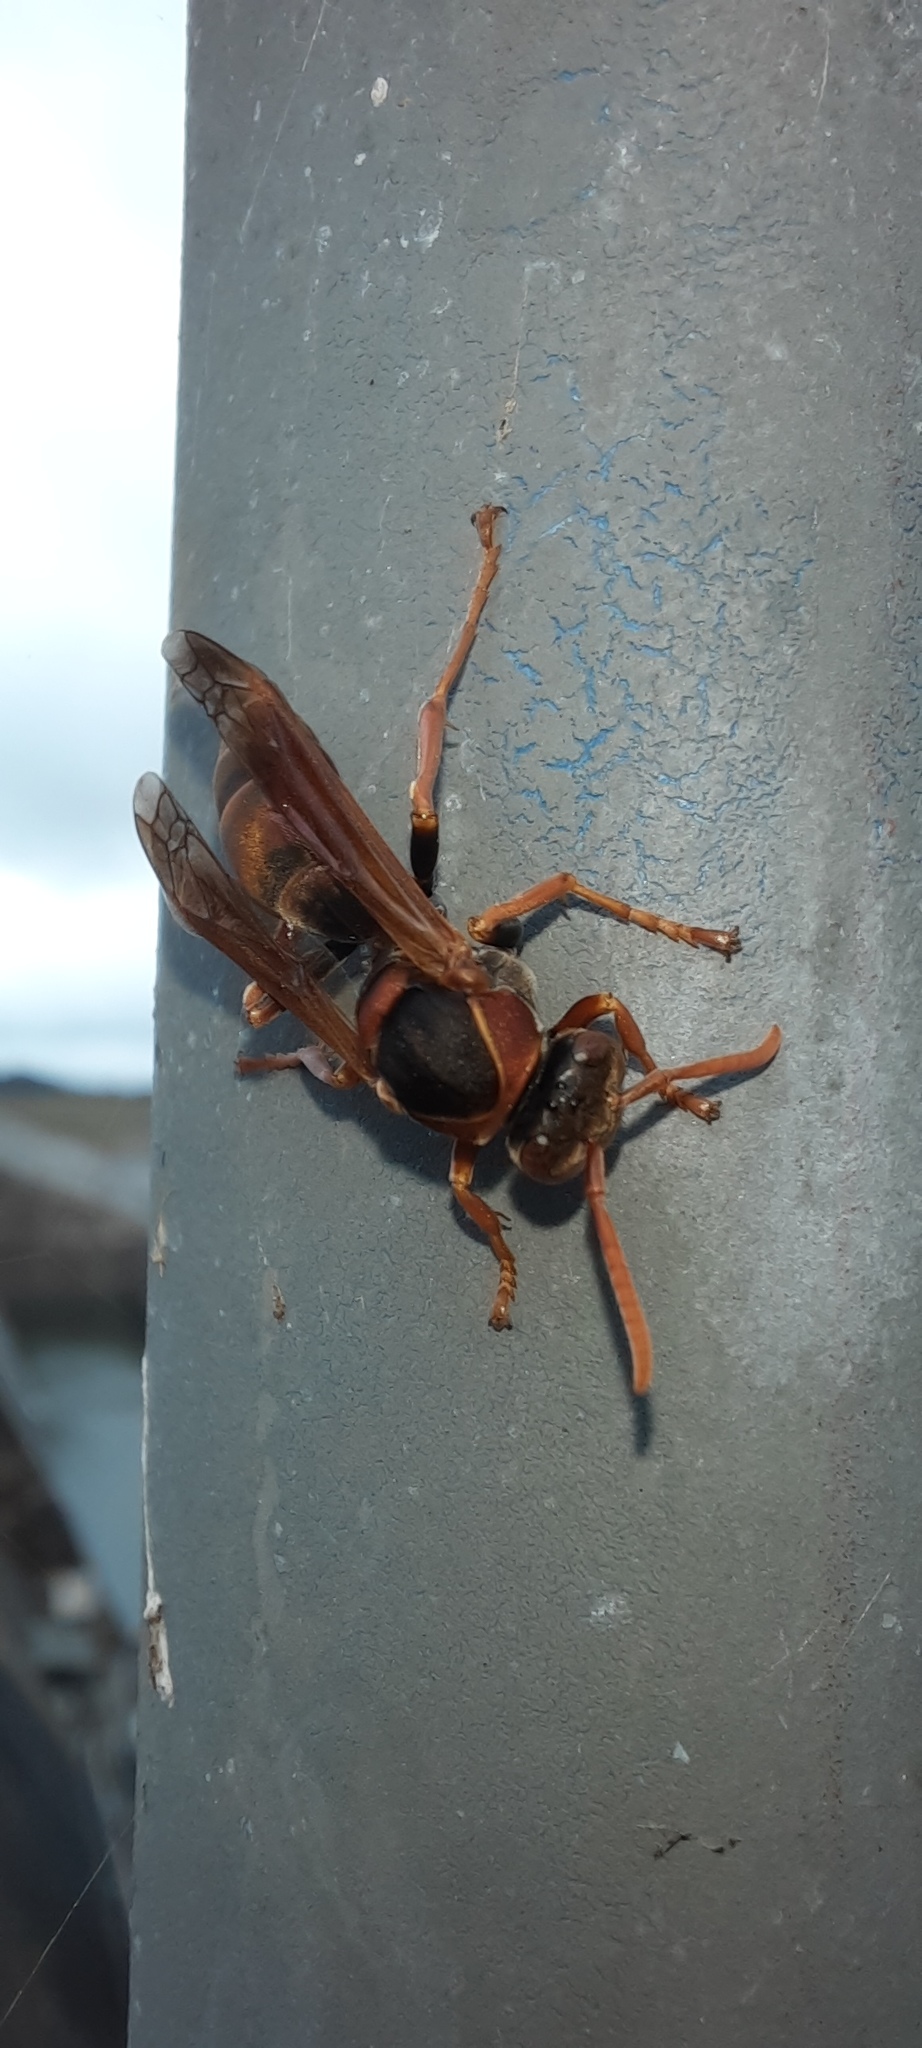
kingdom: Animalia
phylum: Arthropoda
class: Insecta
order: Hymenoptera
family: Eumenidae
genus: Polistes
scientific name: Polistes humilis
